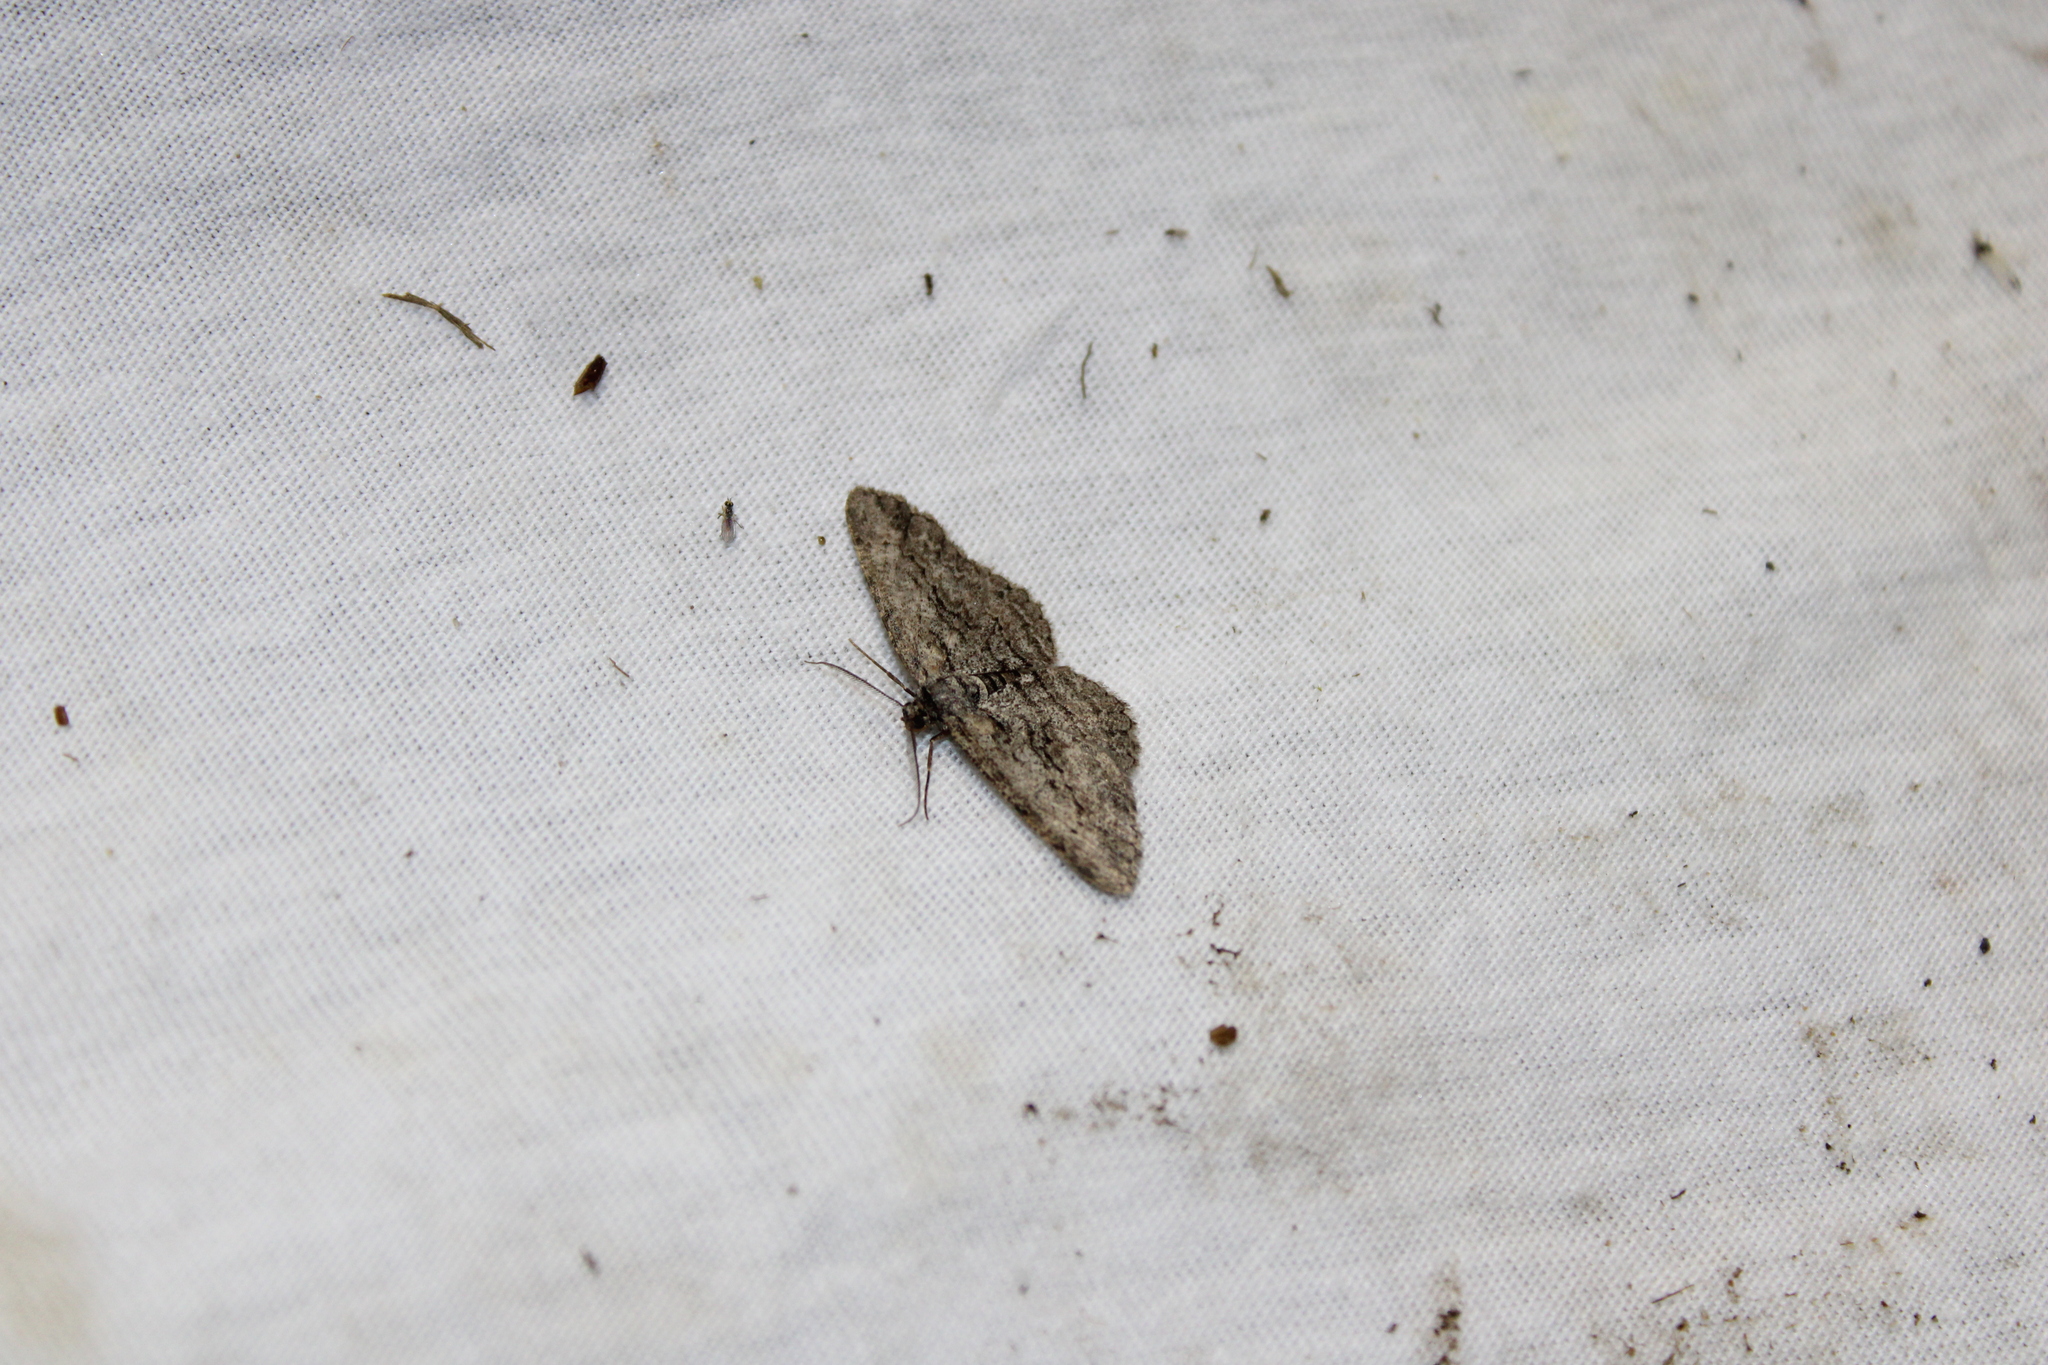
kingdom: Animalia
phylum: Arthropoda
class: Insecta
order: Lepidoptera
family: Geometridae
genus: Anavitrinella
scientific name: Anavitrinella pampinaria
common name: Common gray
